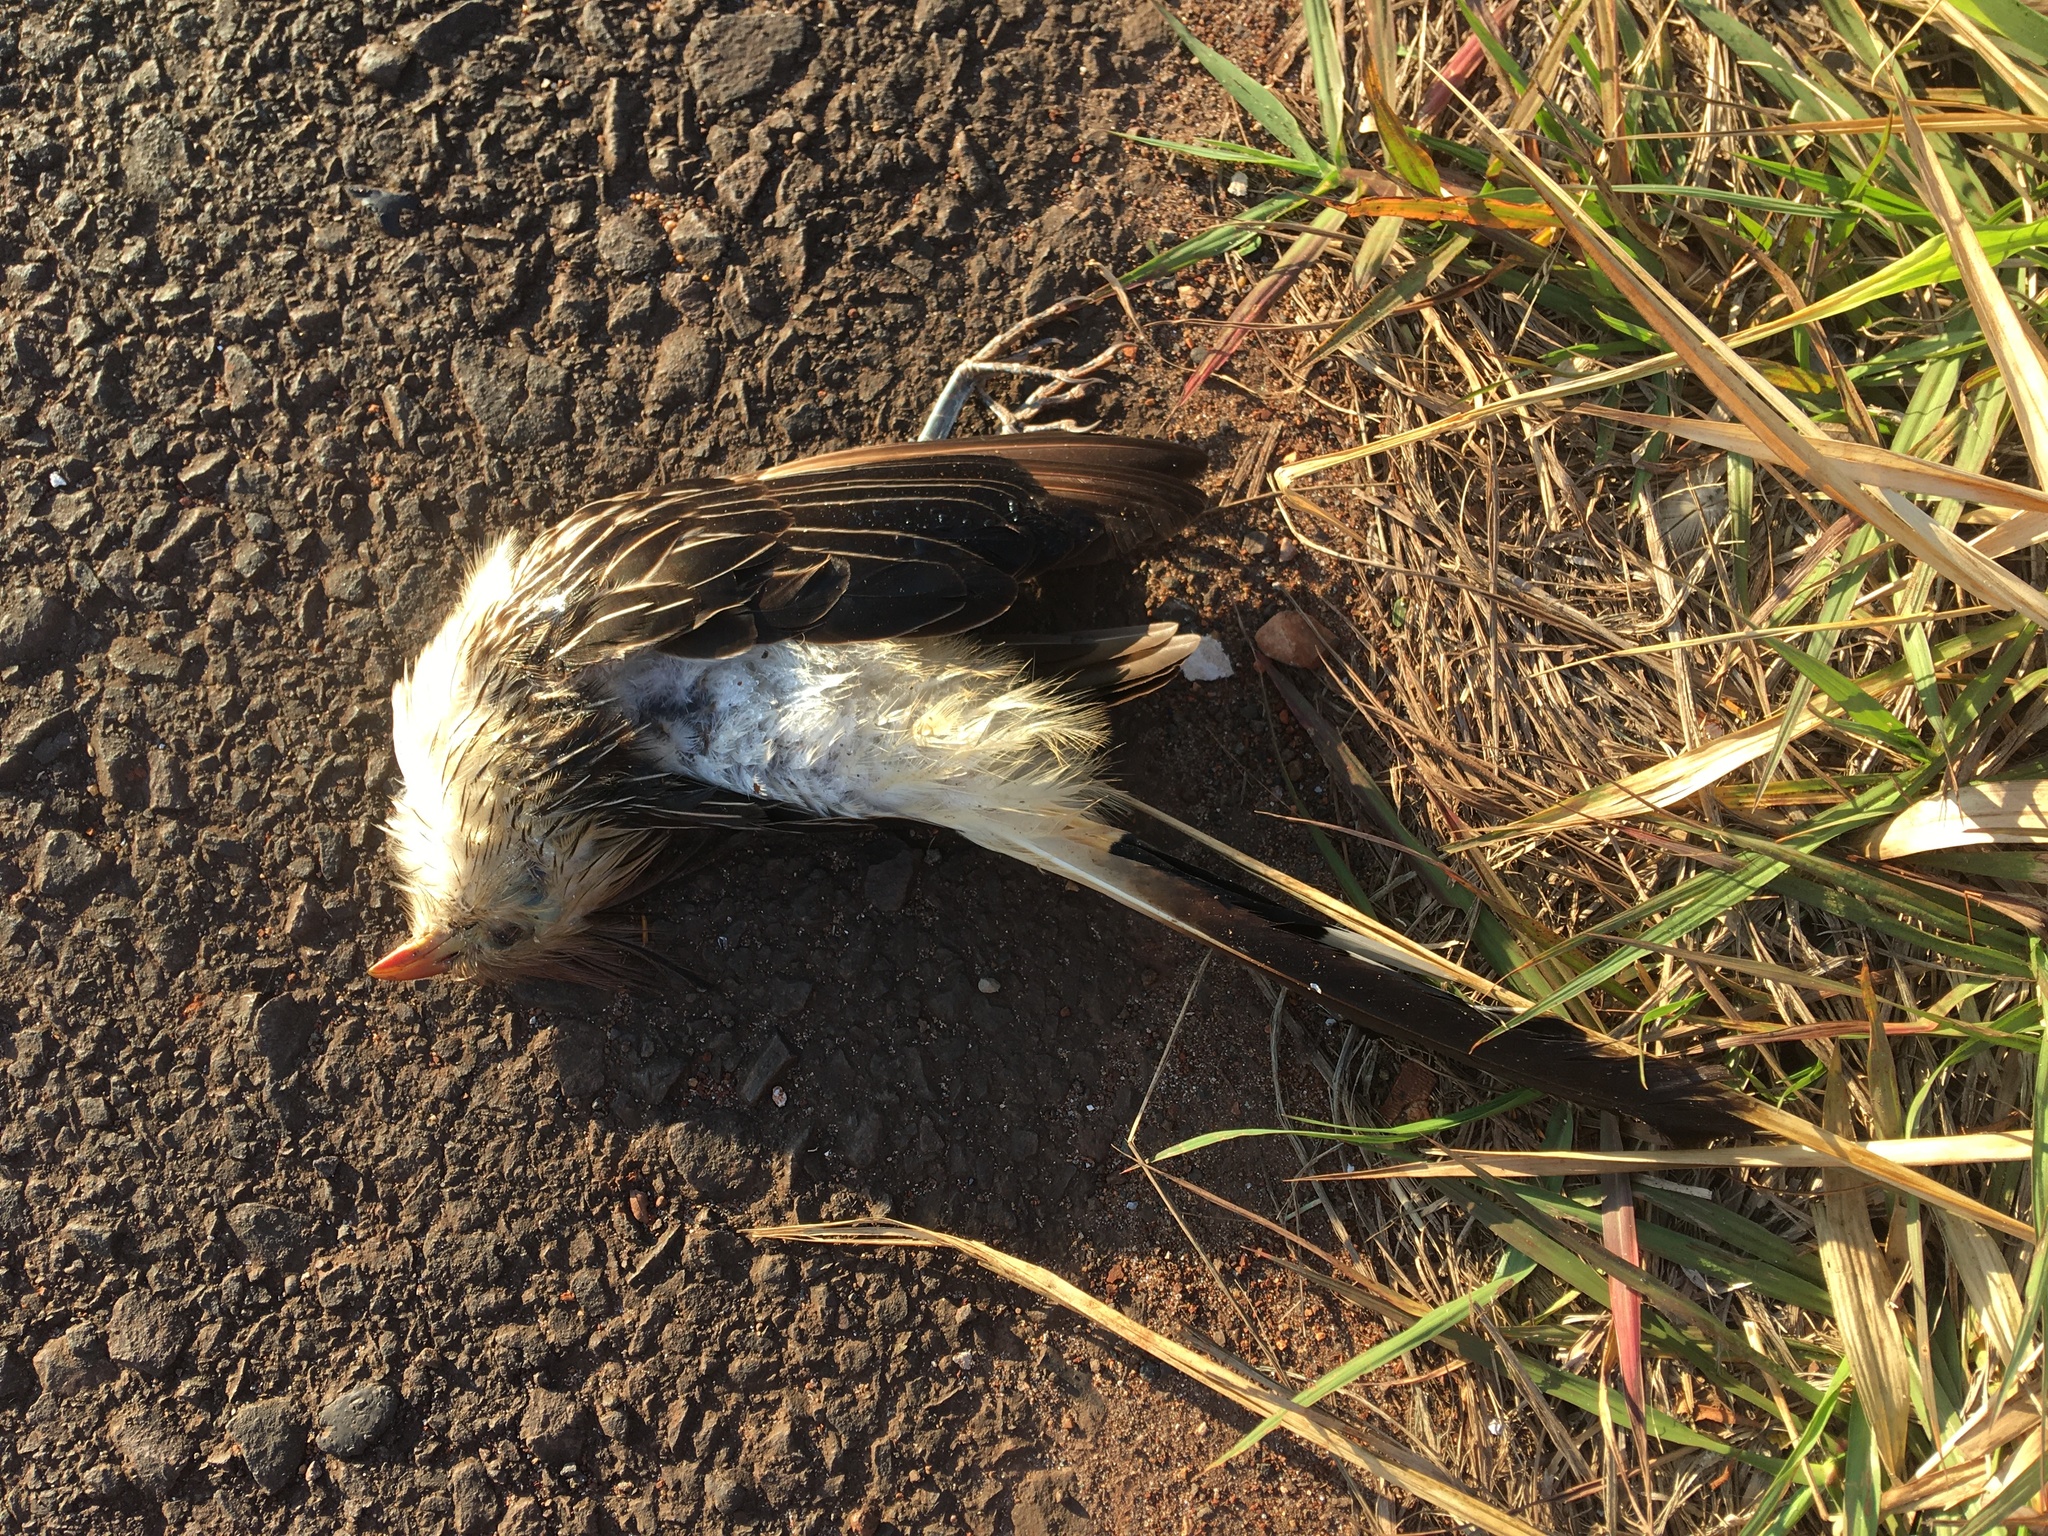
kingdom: Animalia
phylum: Chordata
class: Aves
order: Cuculiformes
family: Cuculidae
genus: Guira
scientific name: Guira guira
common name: Guira cuckoo
